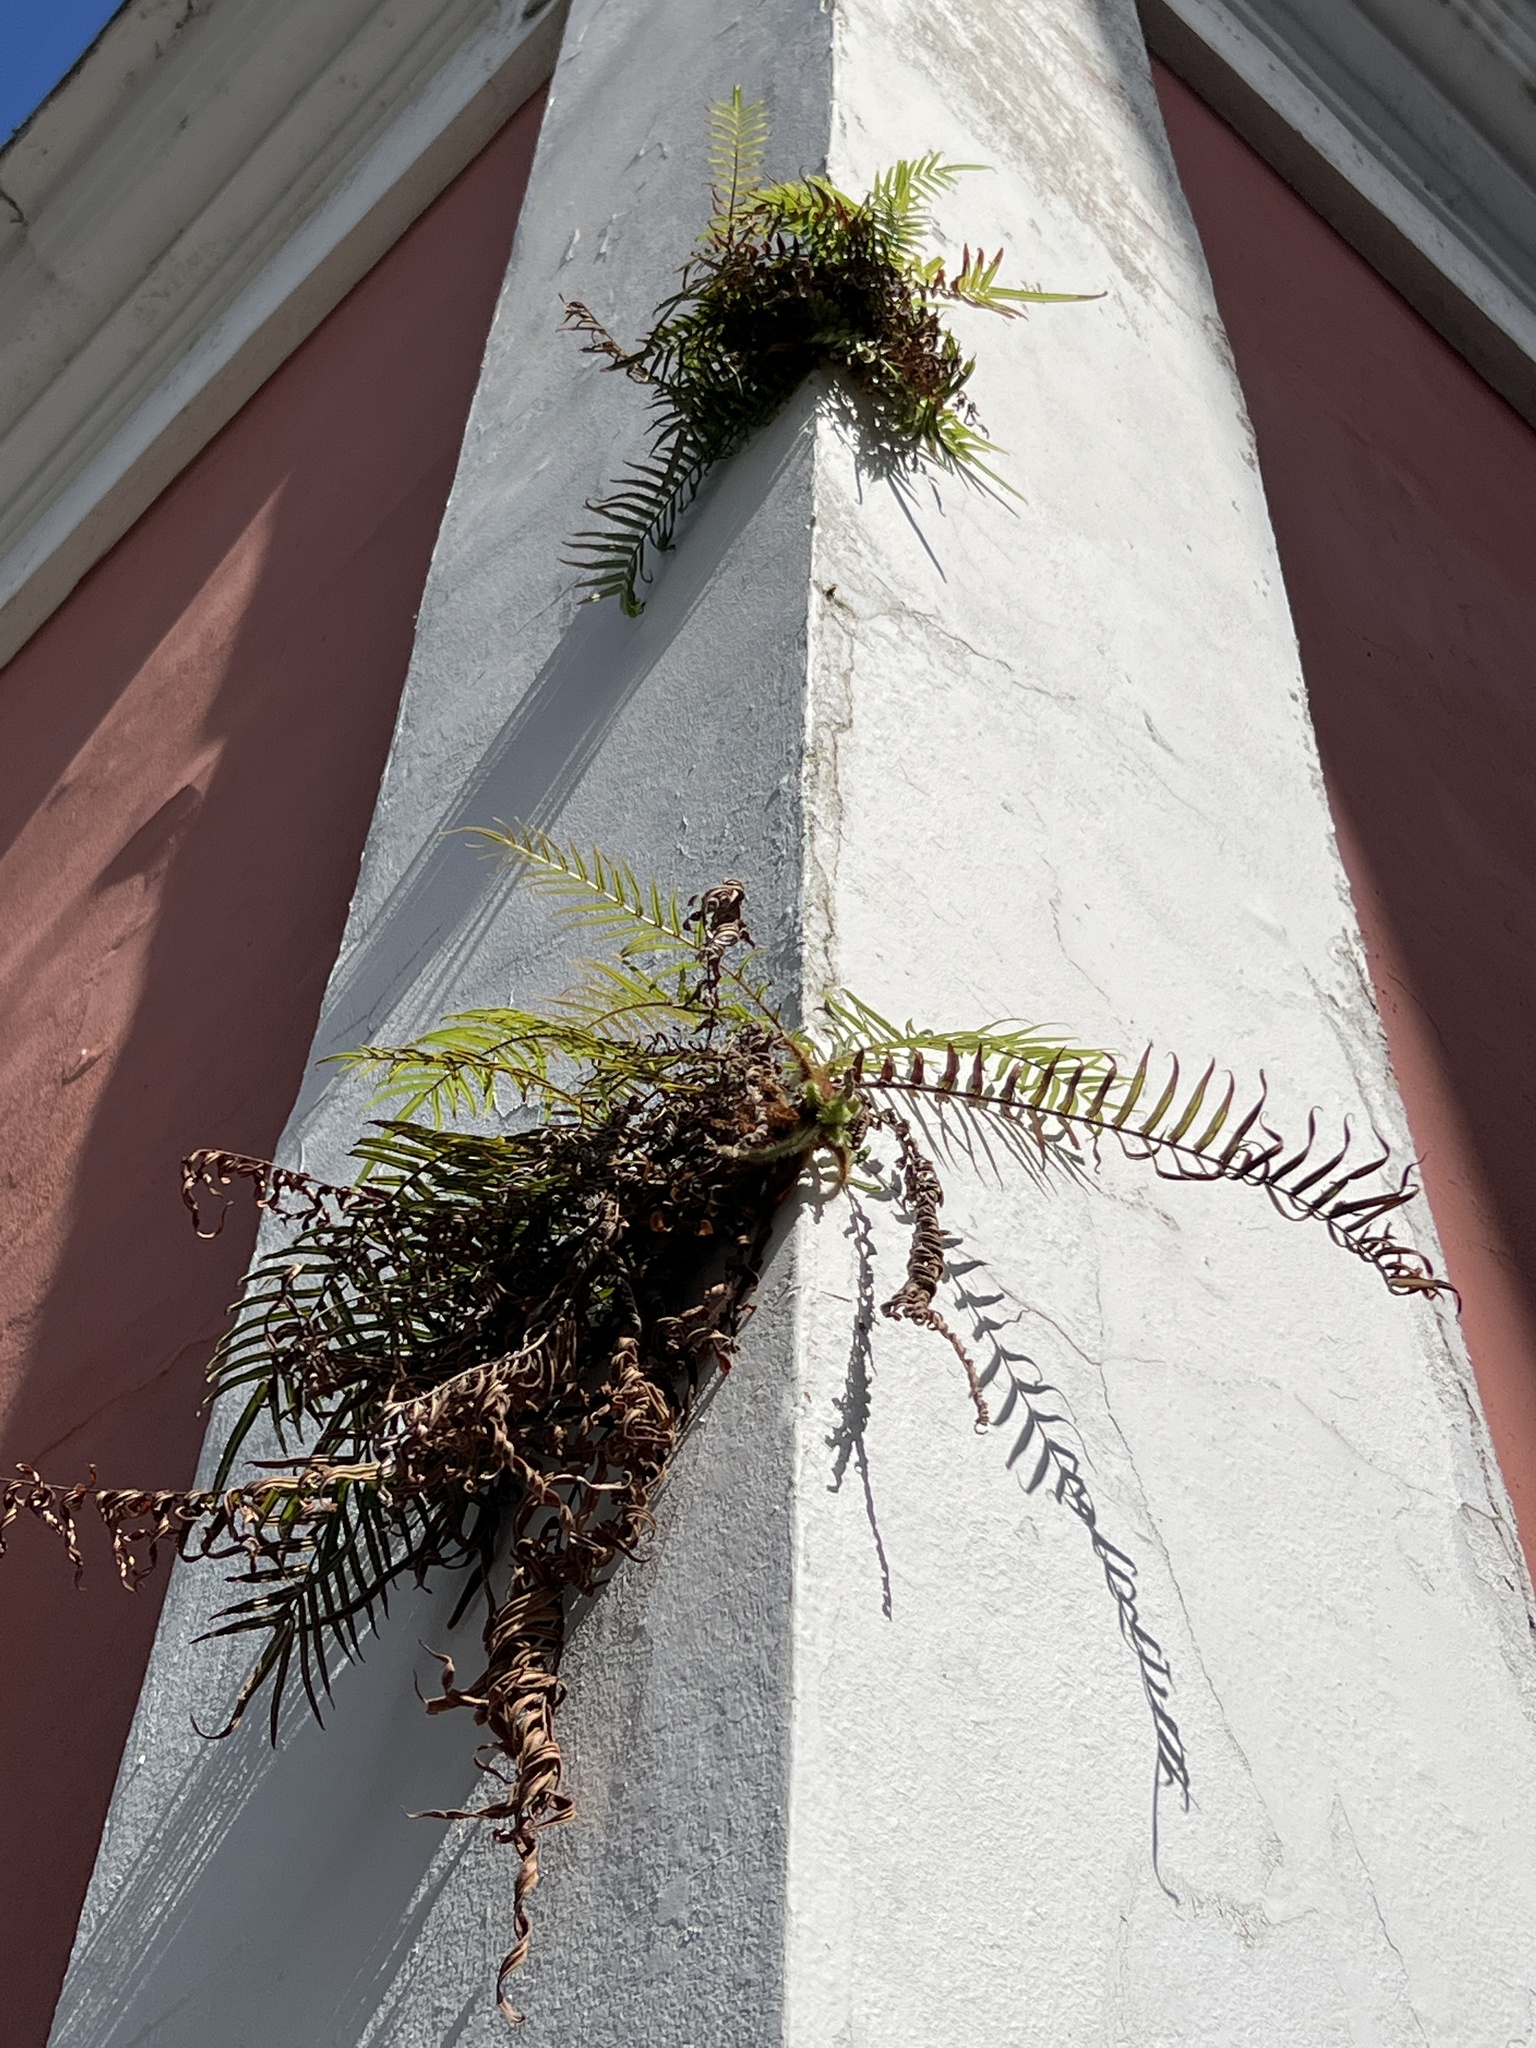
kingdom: Plantae
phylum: Tracheophyta
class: Polypodiopsida
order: Polypodiales
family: Pteridaceae
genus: Pteris
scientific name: Pteris vittata
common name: Ladder brake
